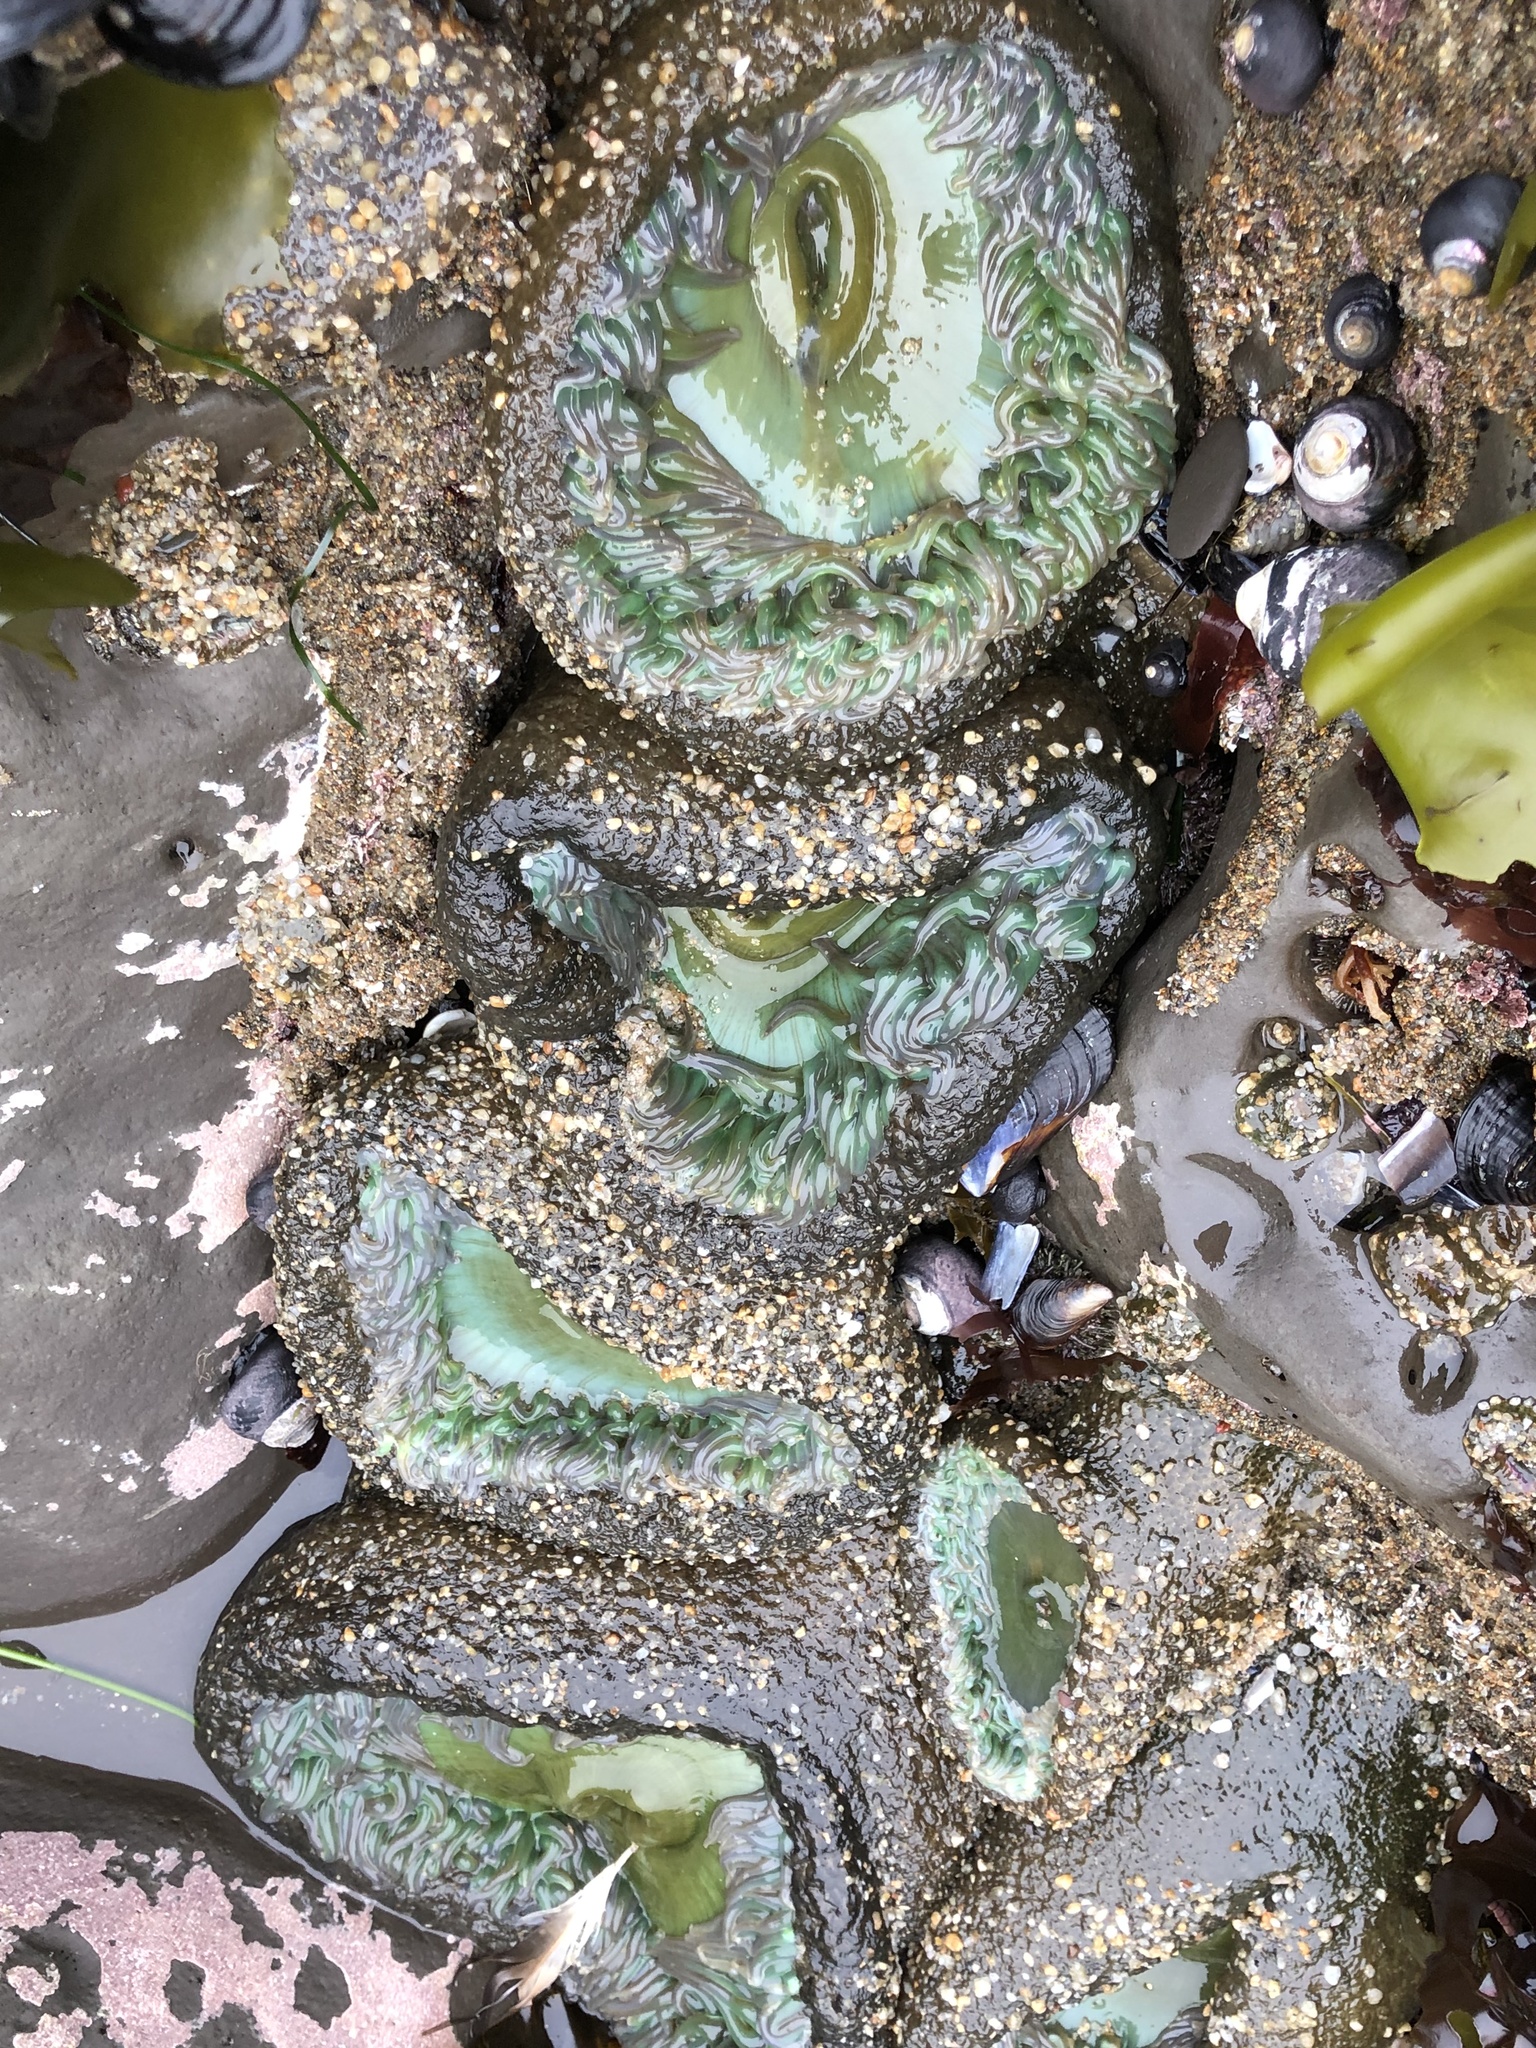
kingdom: Animalia
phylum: Cnidaria
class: Anthozoa
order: Actiniaria
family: Actiniidae
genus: Anthopleura
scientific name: Anthopleura xanthogrammica
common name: Giant green anemone
